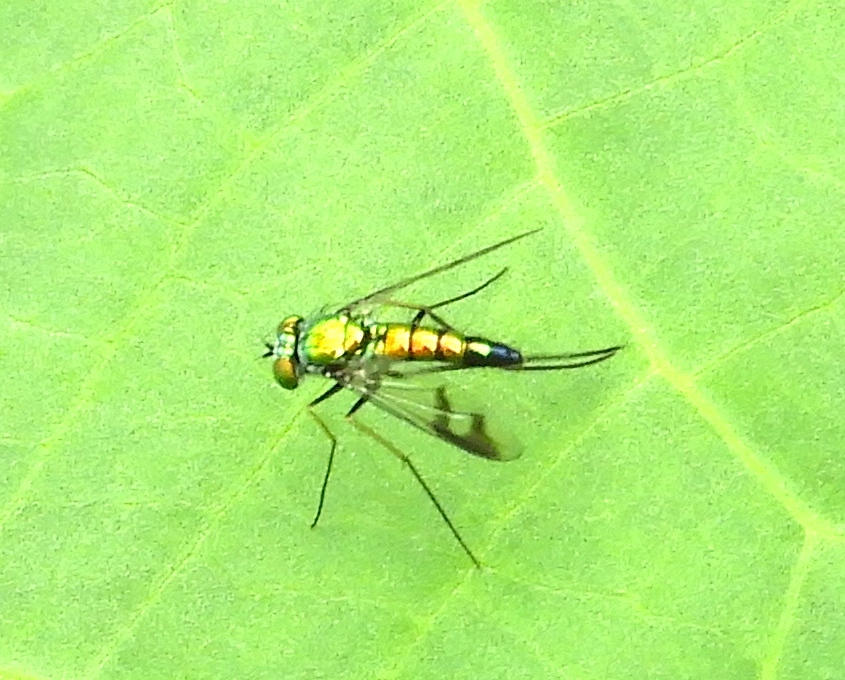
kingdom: Animalia
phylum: Arthropoda
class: Insecta
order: Diptera
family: Dolichopodidae
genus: Condylostylus
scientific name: Condylostylus
